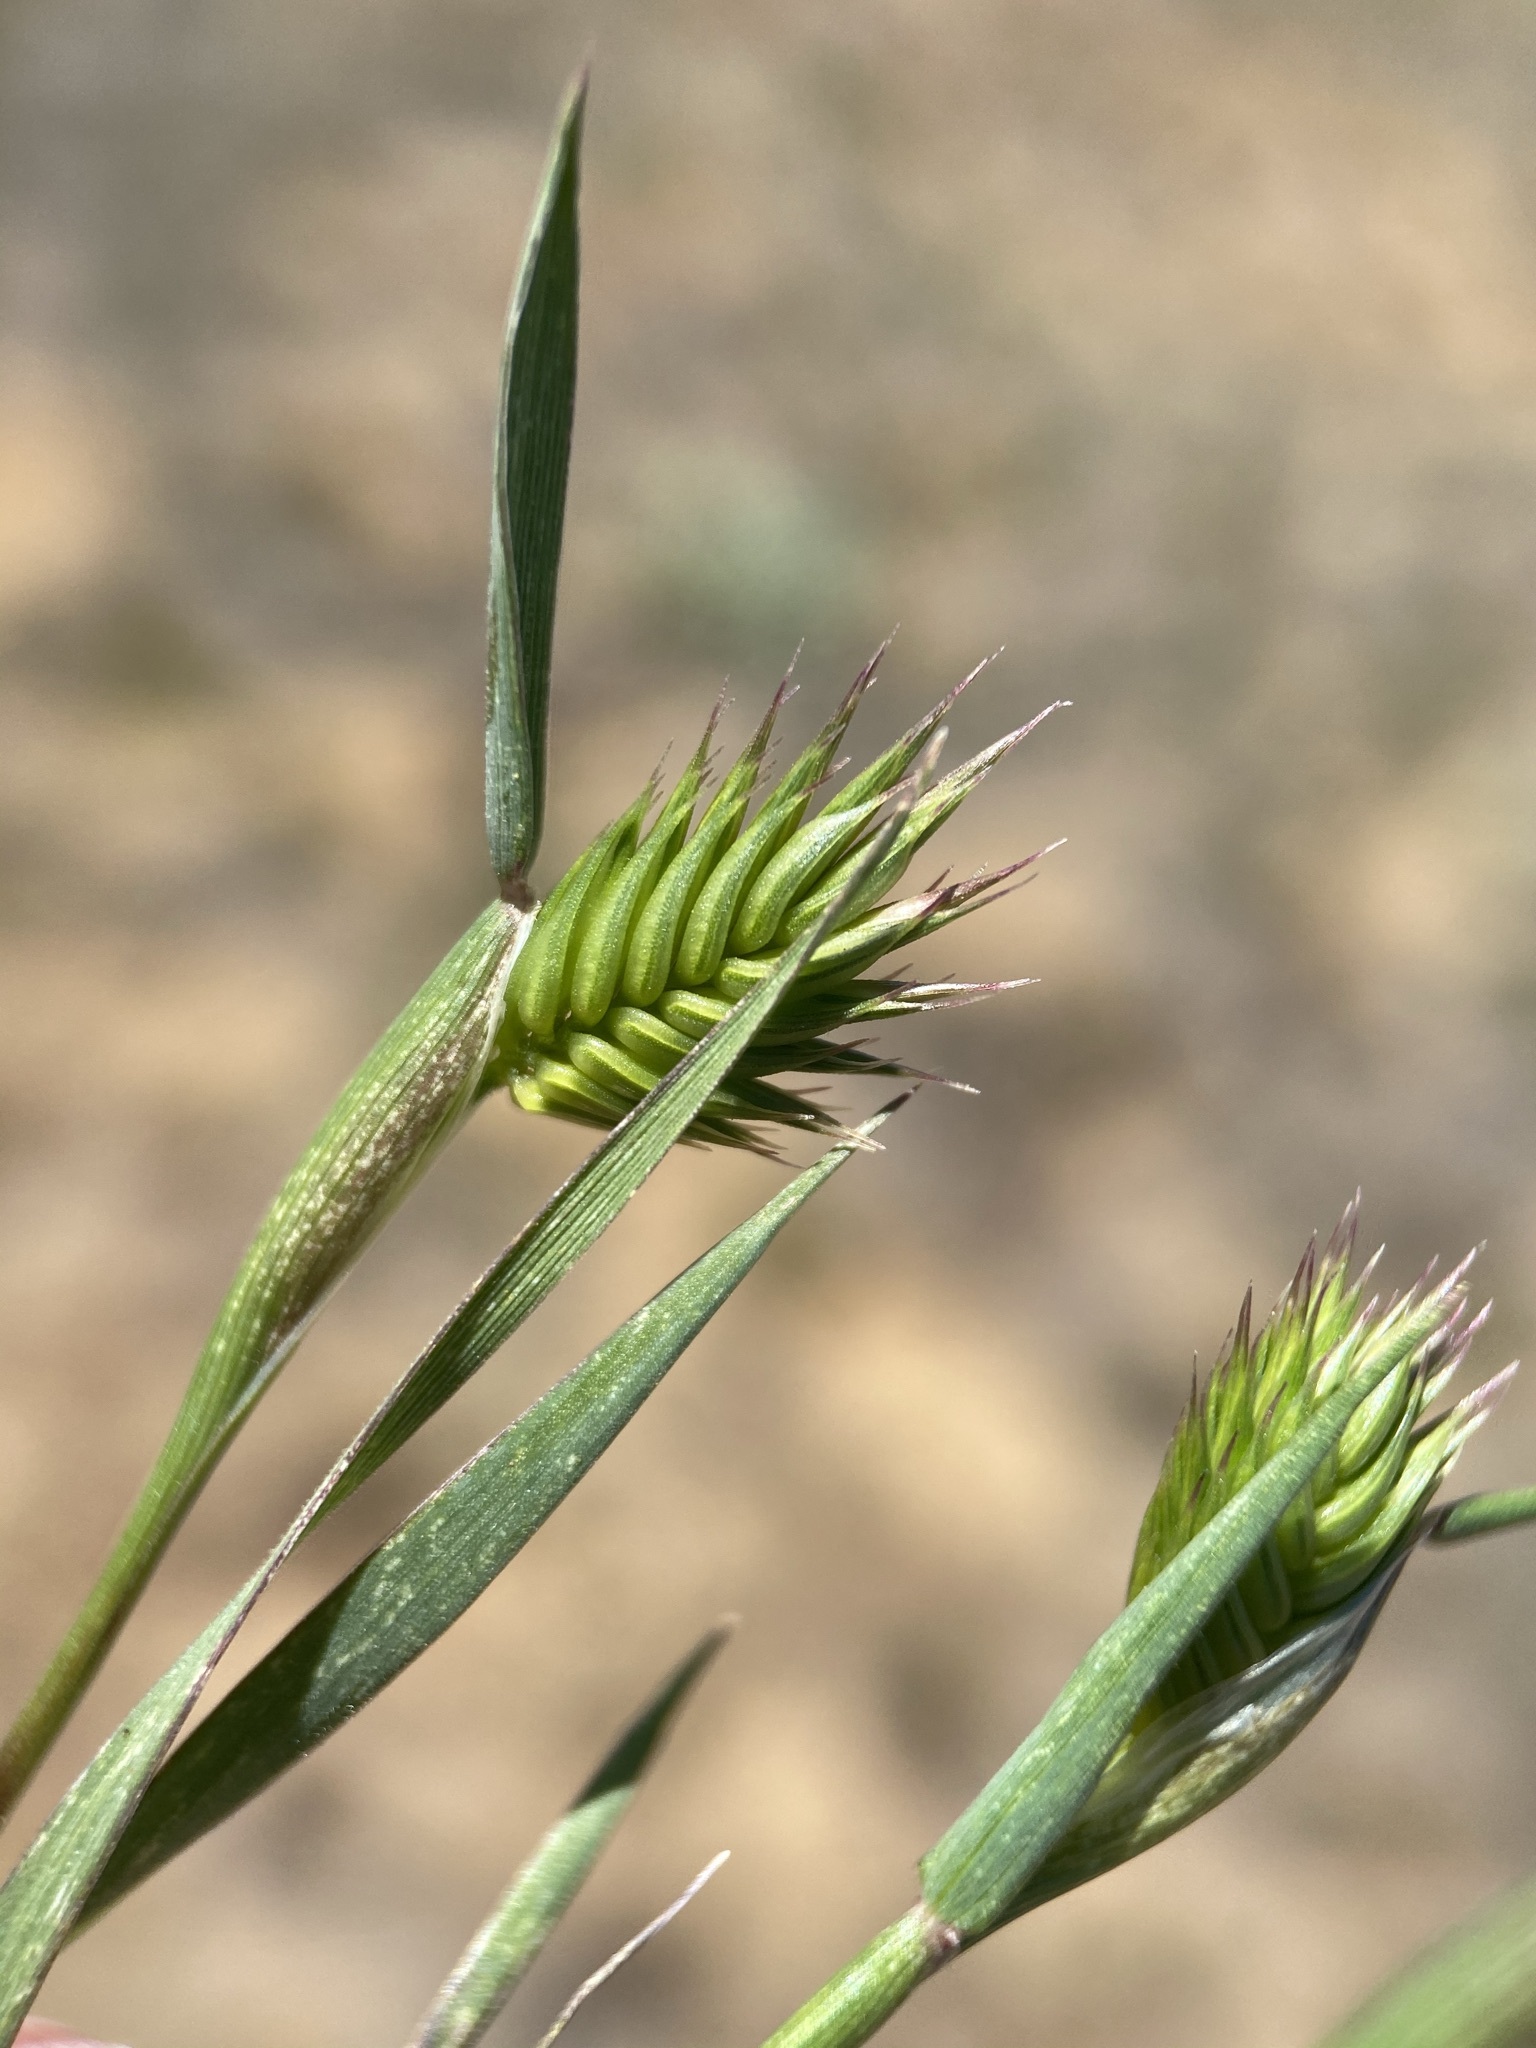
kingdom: Plantae
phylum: Tracheophyta
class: Liliopsida
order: Poales
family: Poaceae
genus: Eremopyrum
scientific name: Eremopyrum triticeum
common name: Annual wheatgrass
